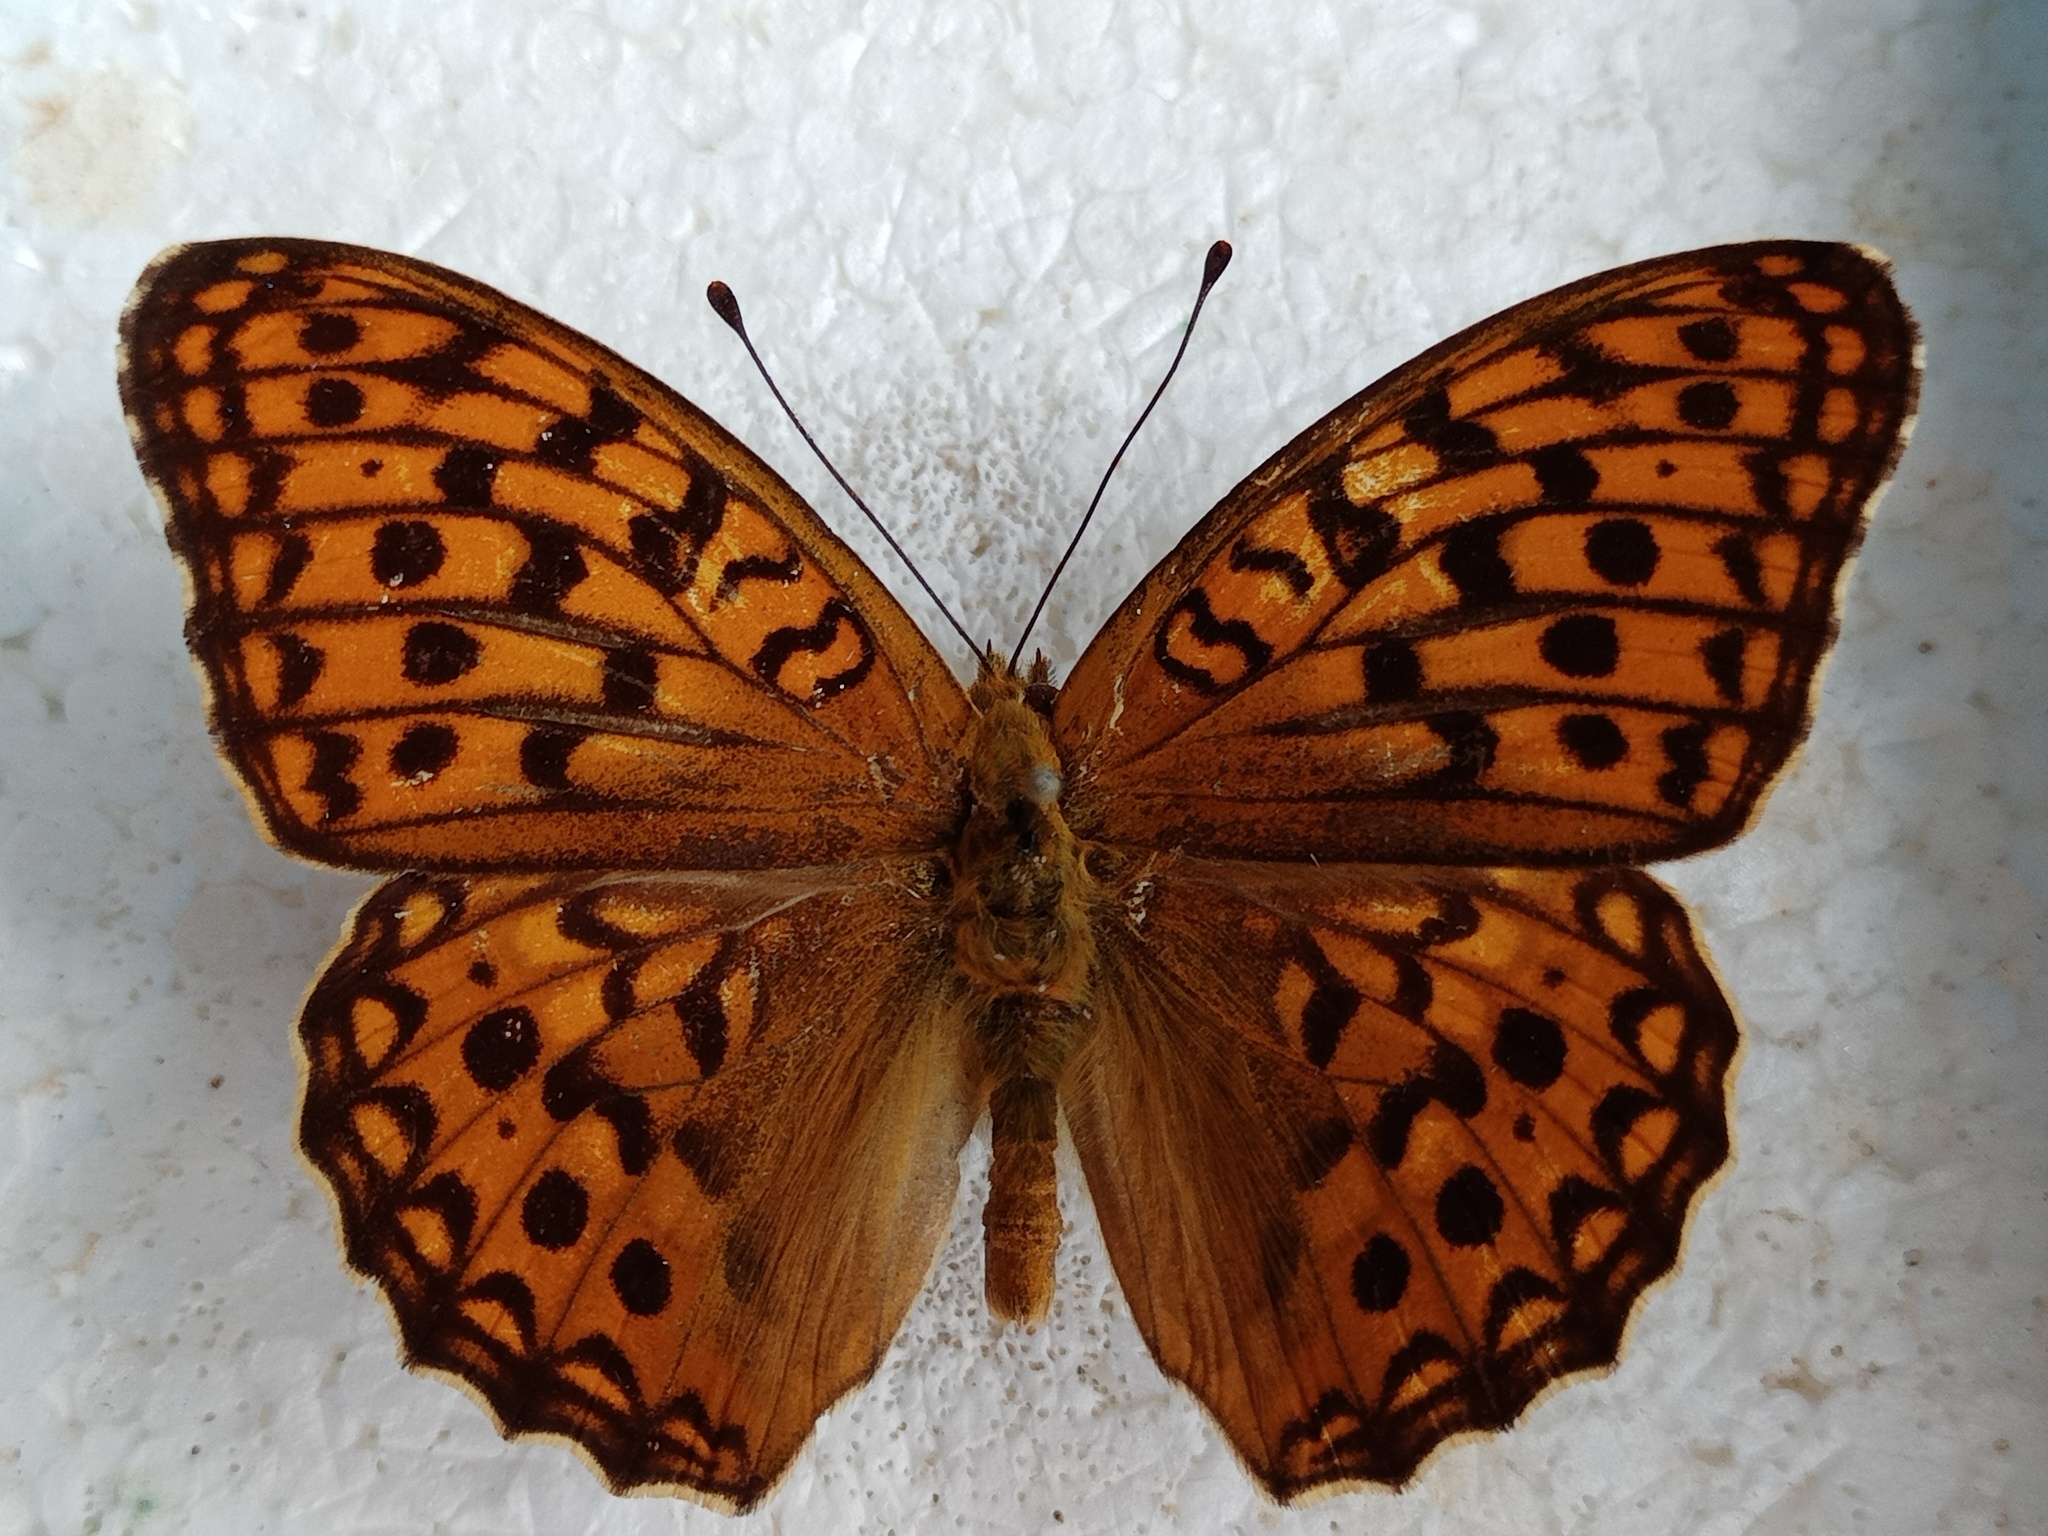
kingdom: Animalia
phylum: Arthropoda
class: Insecta
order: Lepidoptera
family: Nymphalidae
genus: Fabriciana
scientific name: Fabriciana adippe
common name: High brown fritillary
